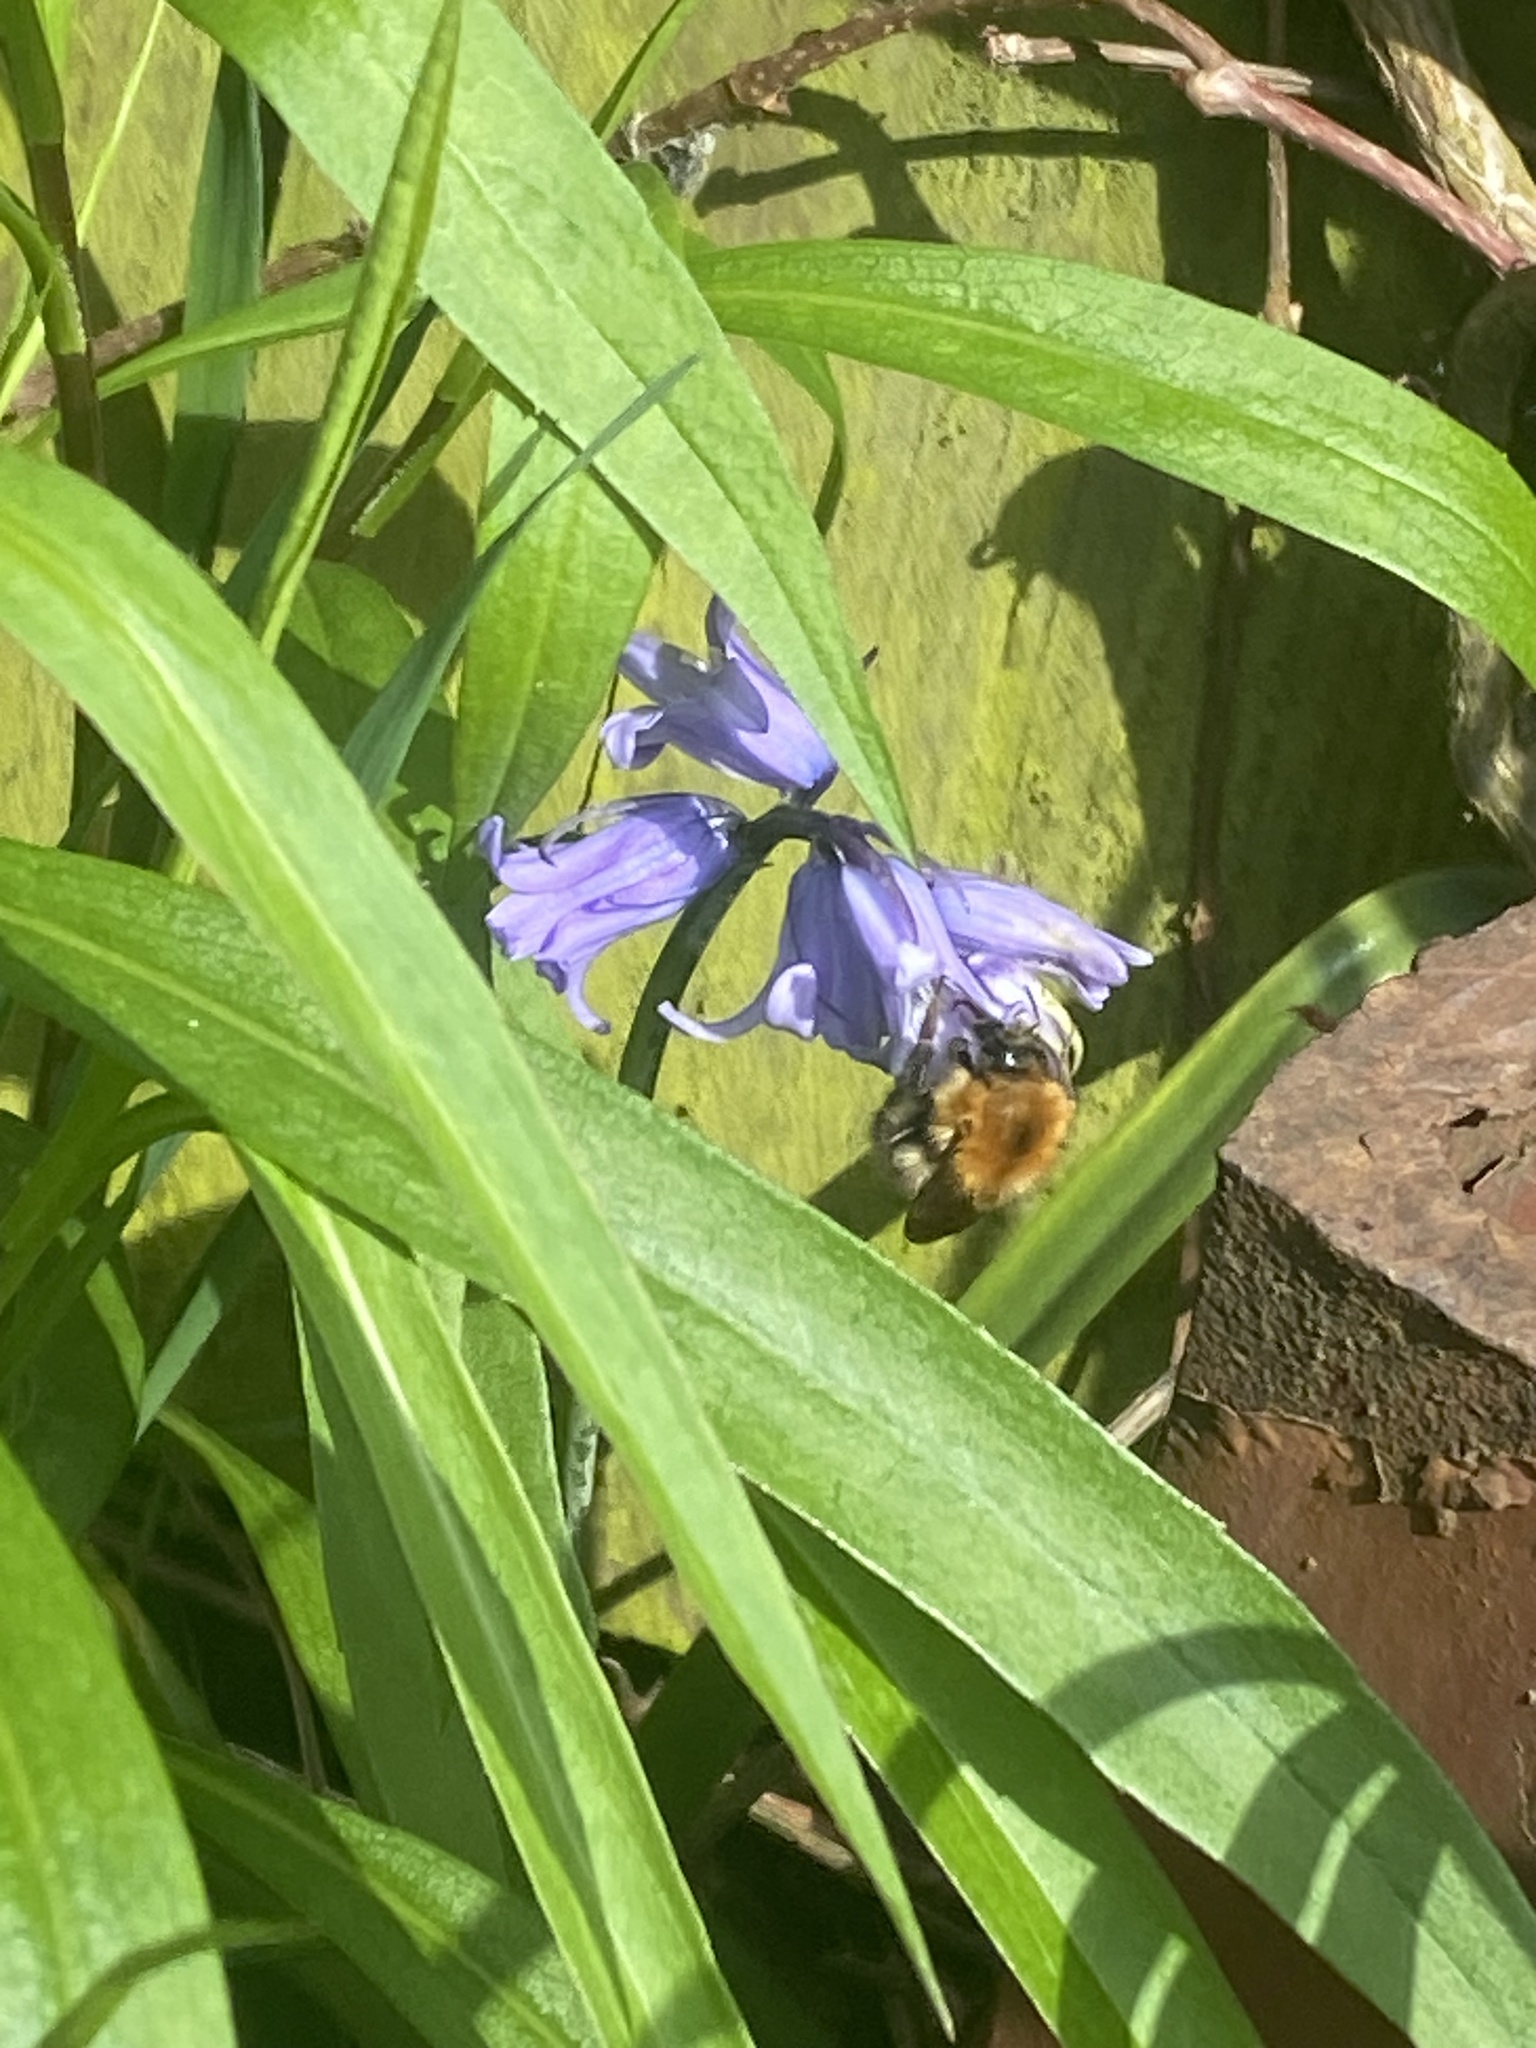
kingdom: Animalia
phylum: Arthropoda
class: Insecta
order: Hymenoptera
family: Apidae
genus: Bombus
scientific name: Bombus pascuorum
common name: Common carder bee
